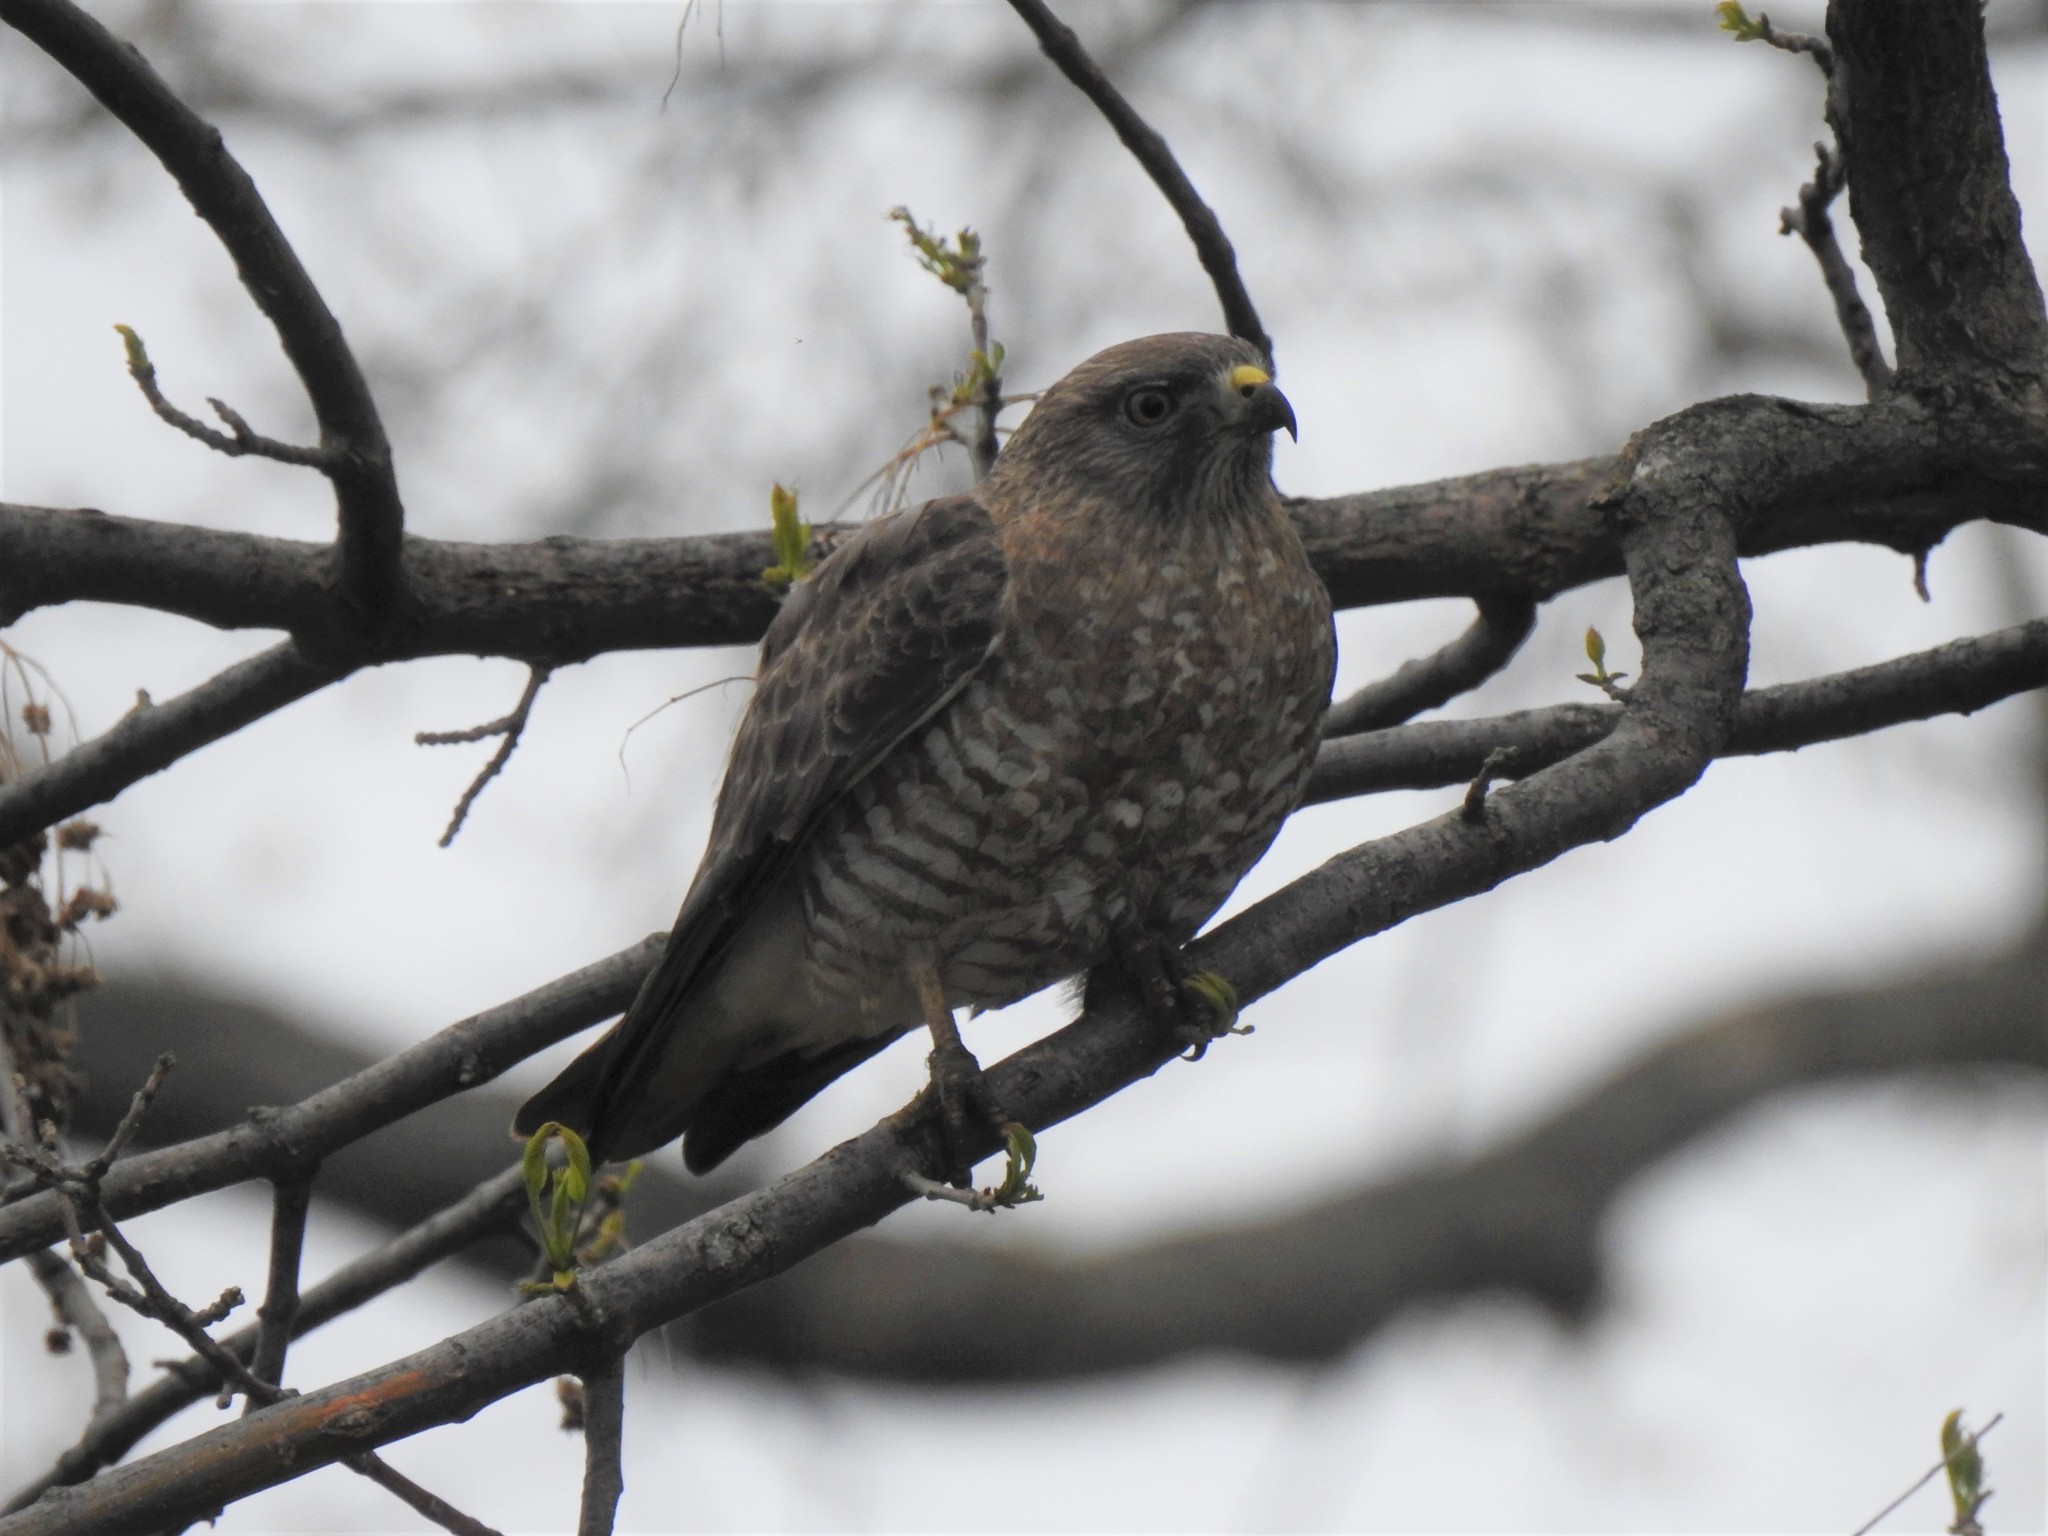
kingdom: Animalia
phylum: Chordata
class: Aves
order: Accipitriformes
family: Accipitridae
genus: Buteo
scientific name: Buteo platypterus
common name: Broad-winged hawk
